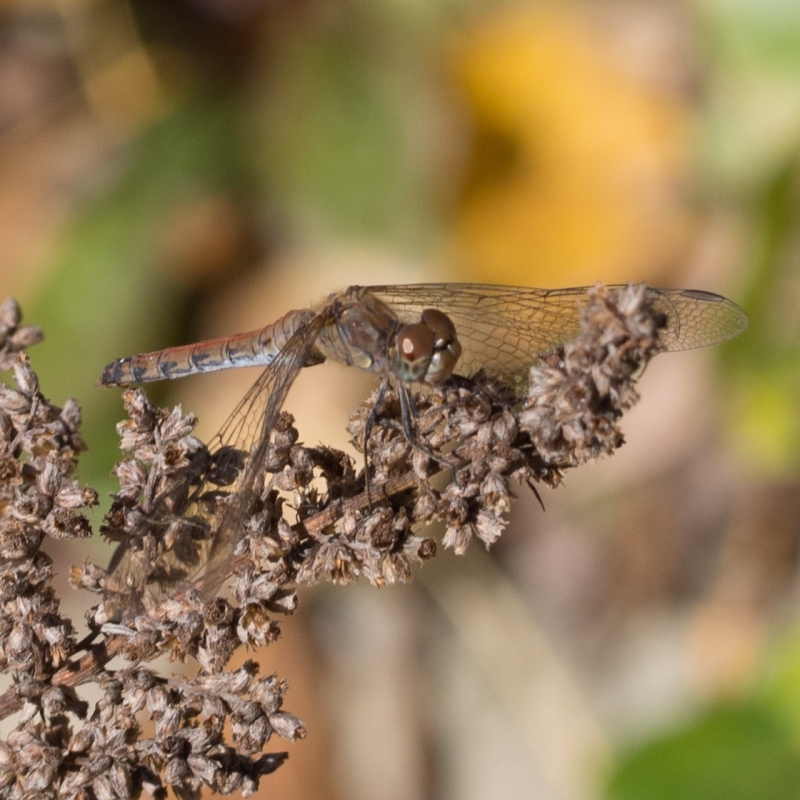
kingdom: Animalia
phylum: Arthropoda
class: Insecta
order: Odonata
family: Libellulidae
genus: Sympetrum
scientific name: Sympetrum striolatum
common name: Common darter
